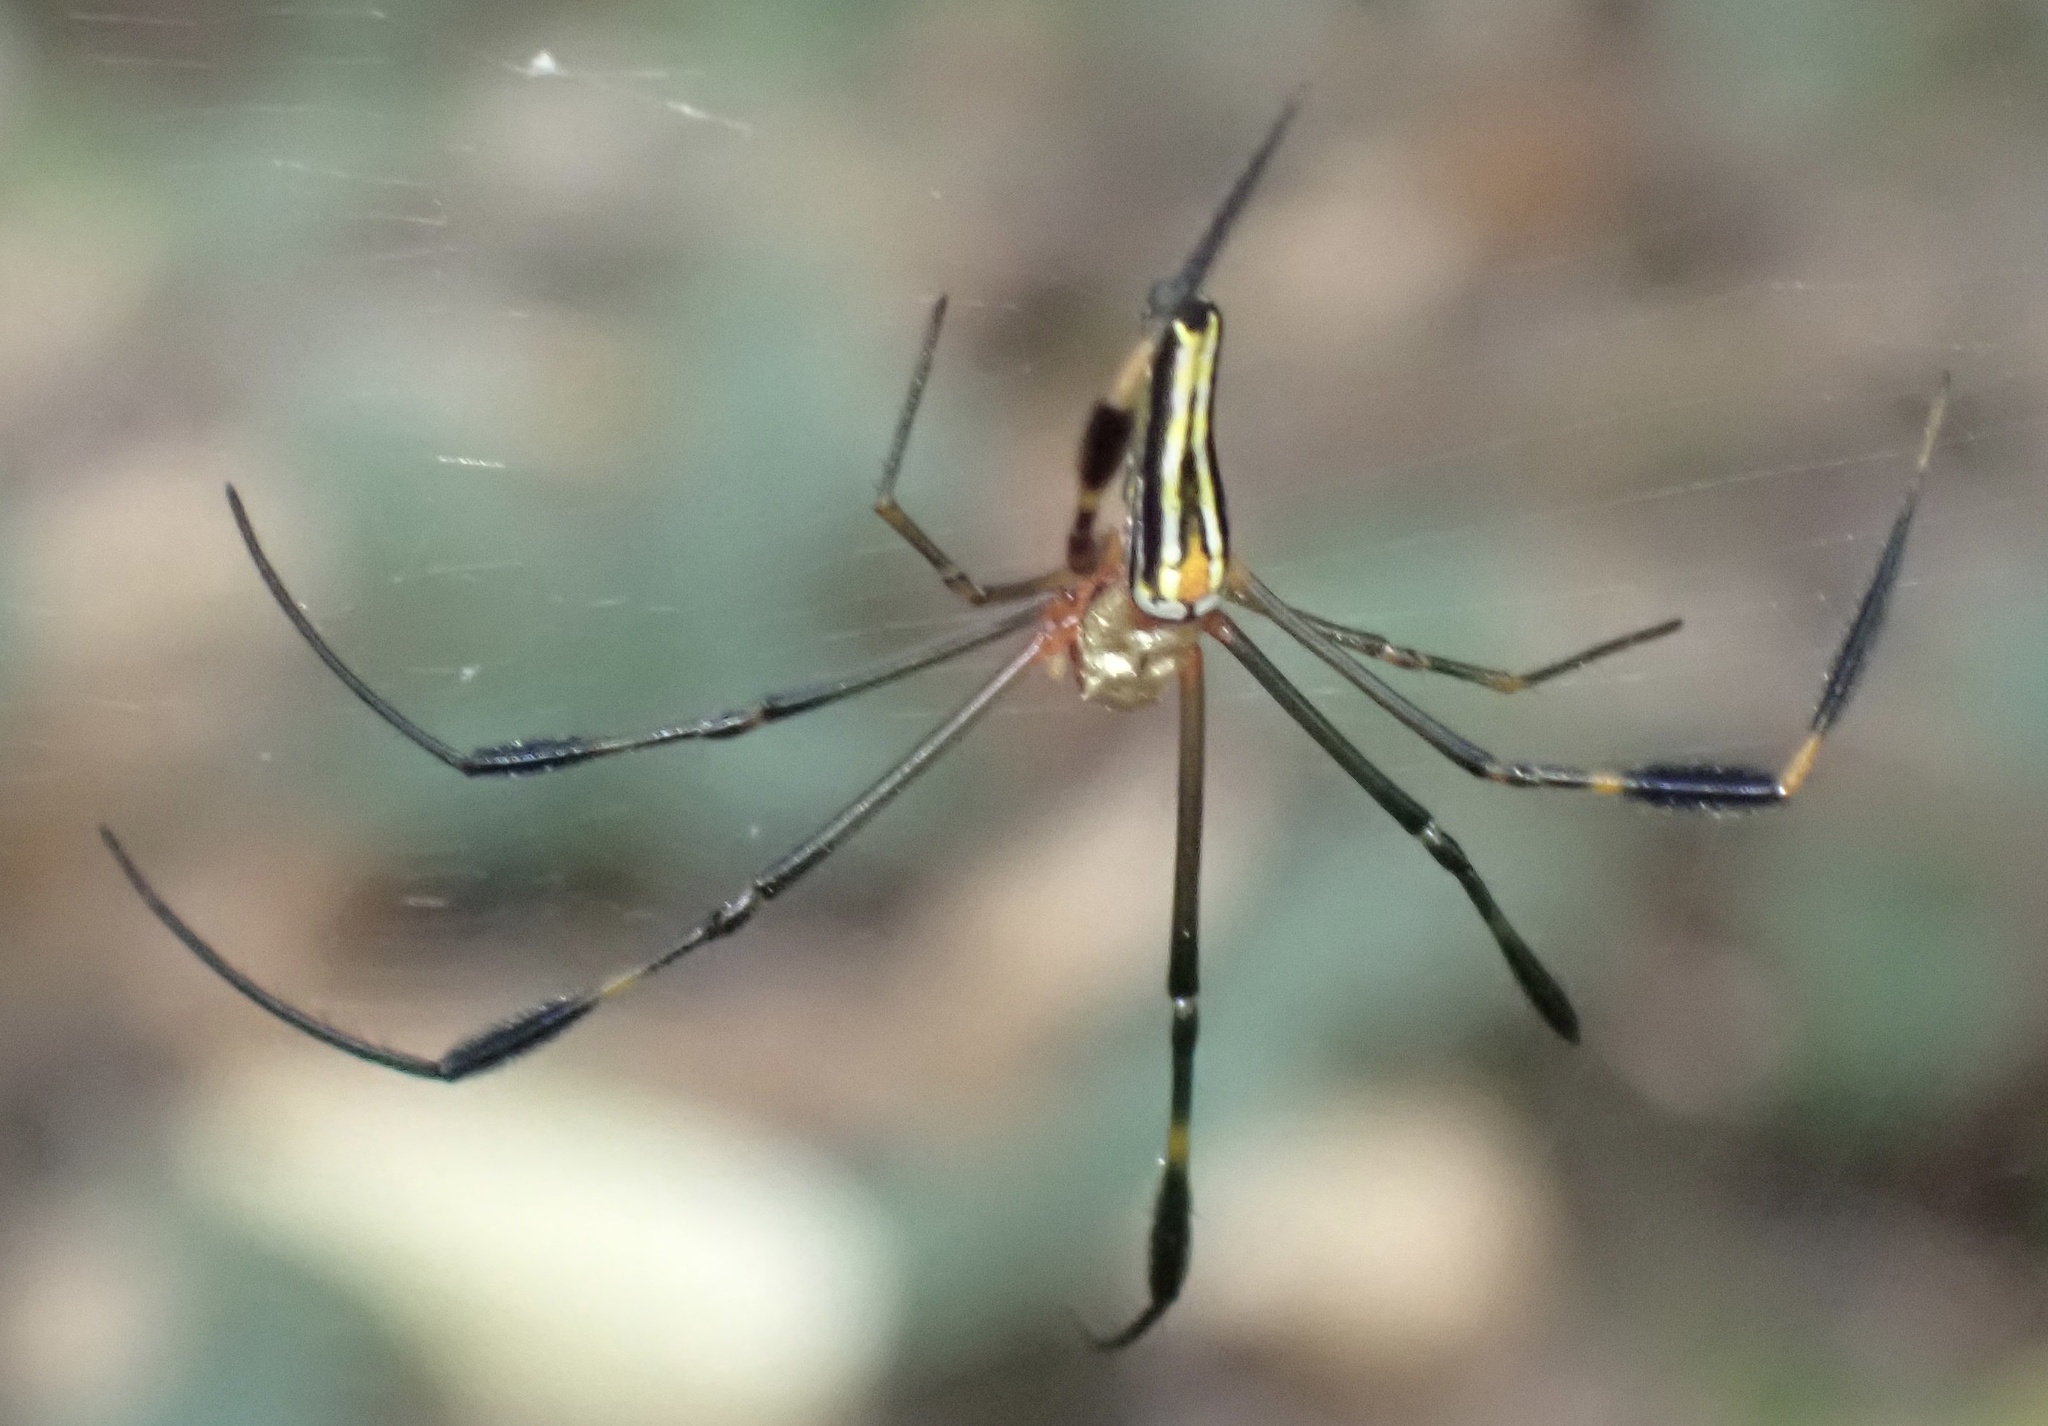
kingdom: Animalia
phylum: Arthropoda
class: Arachnida
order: Araneae
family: Araneidae
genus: Nephila
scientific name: Nephila pilipes
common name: Giant golden orb weaver
